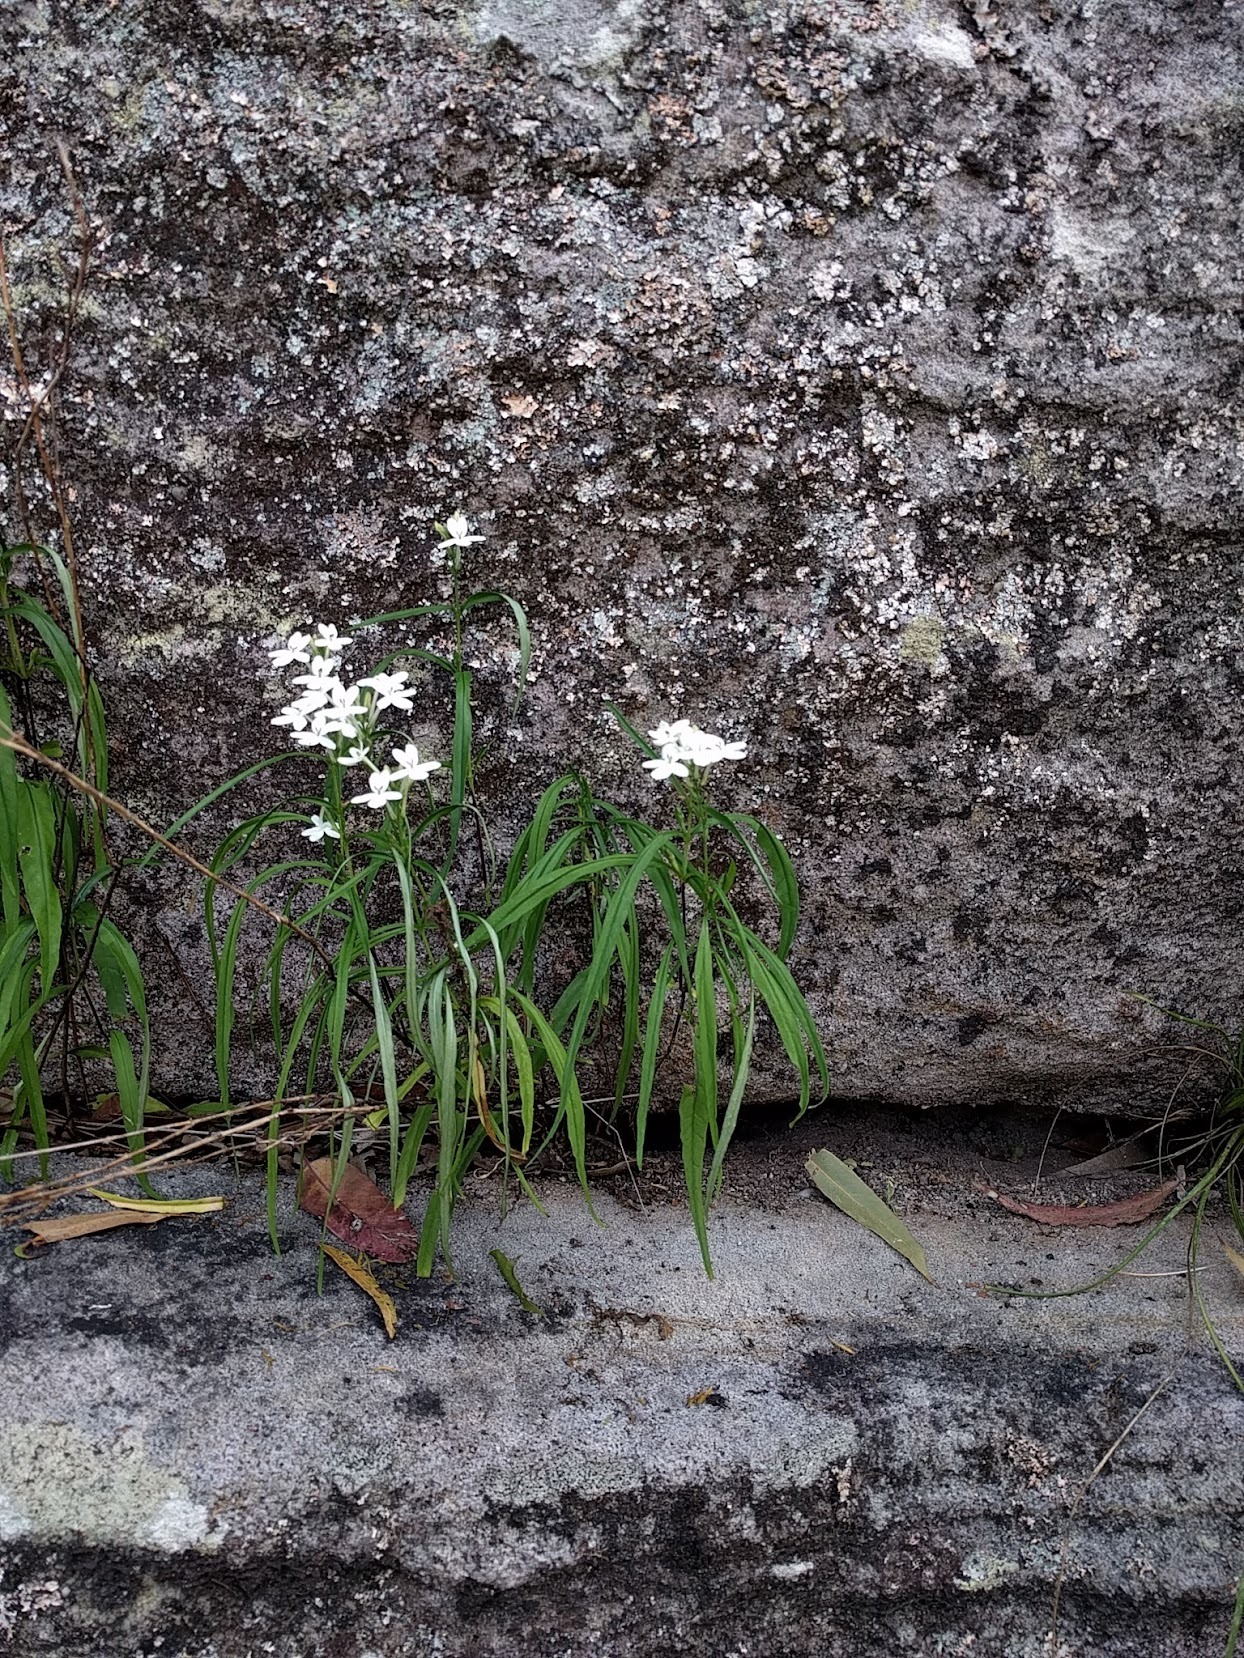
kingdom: Plantae
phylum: Tracheophyta
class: Magnoliopsida
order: Lamiales
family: Acanthaceae
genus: Pseuderanthemum
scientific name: Pseuderanthemum variabile
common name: Night and afternoon
